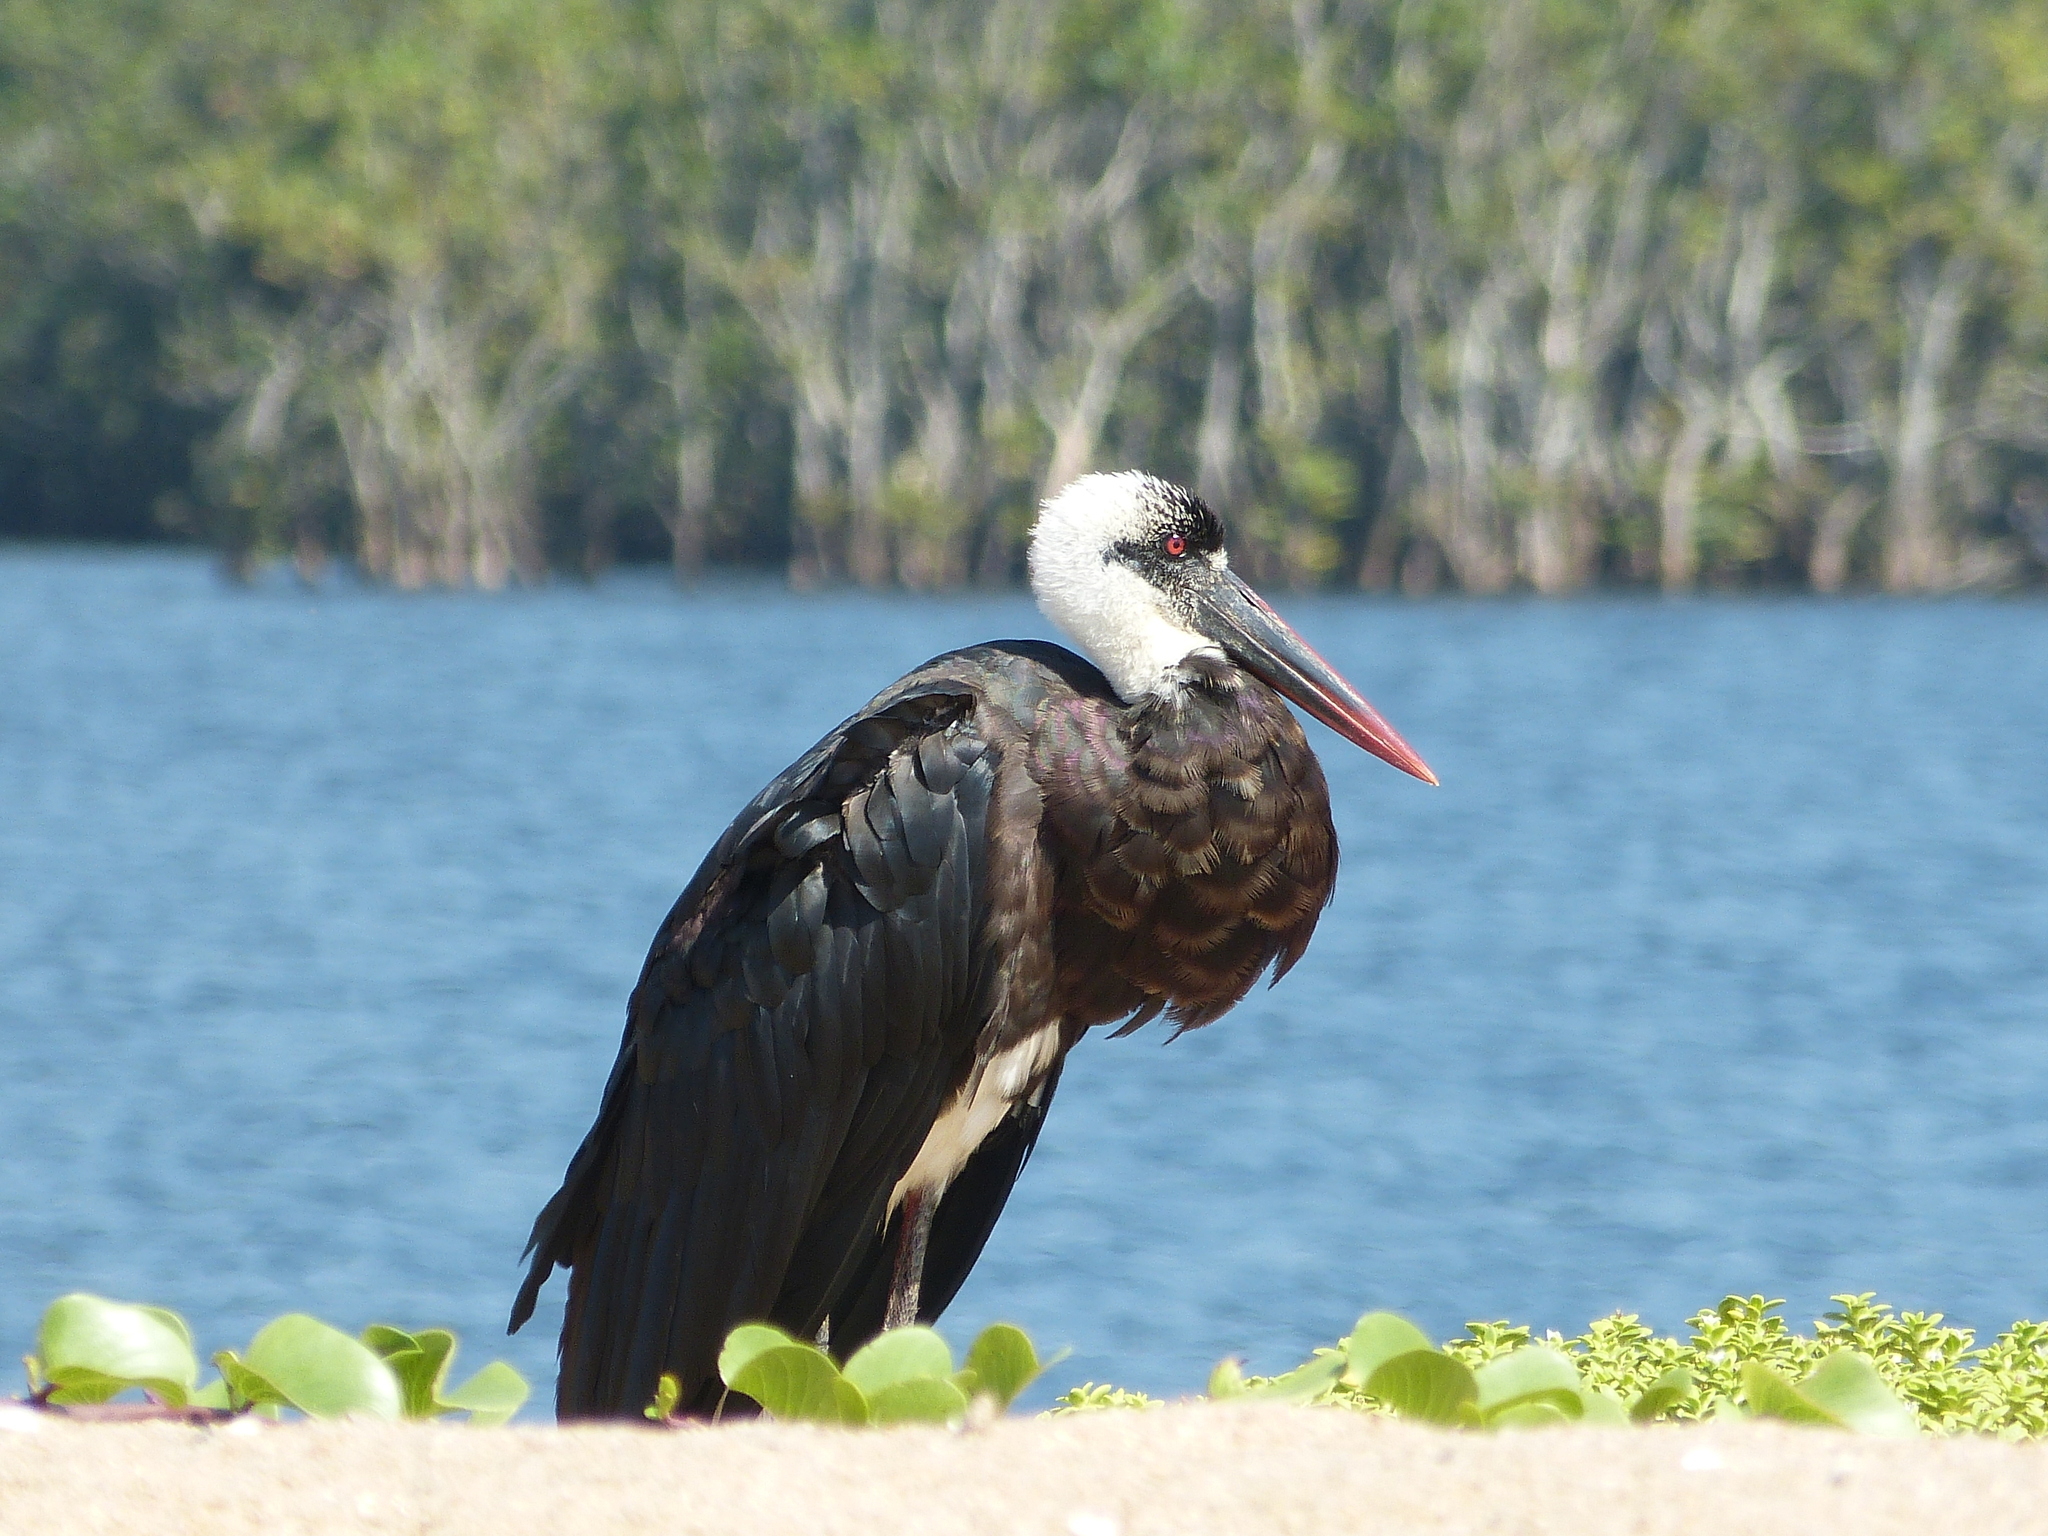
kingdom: Animalia
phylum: Chordata
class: Aves
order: Ciconiiformes
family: Ciconiidae
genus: Ciconia
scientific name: Ciconia microscelis
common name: African woollyneck
